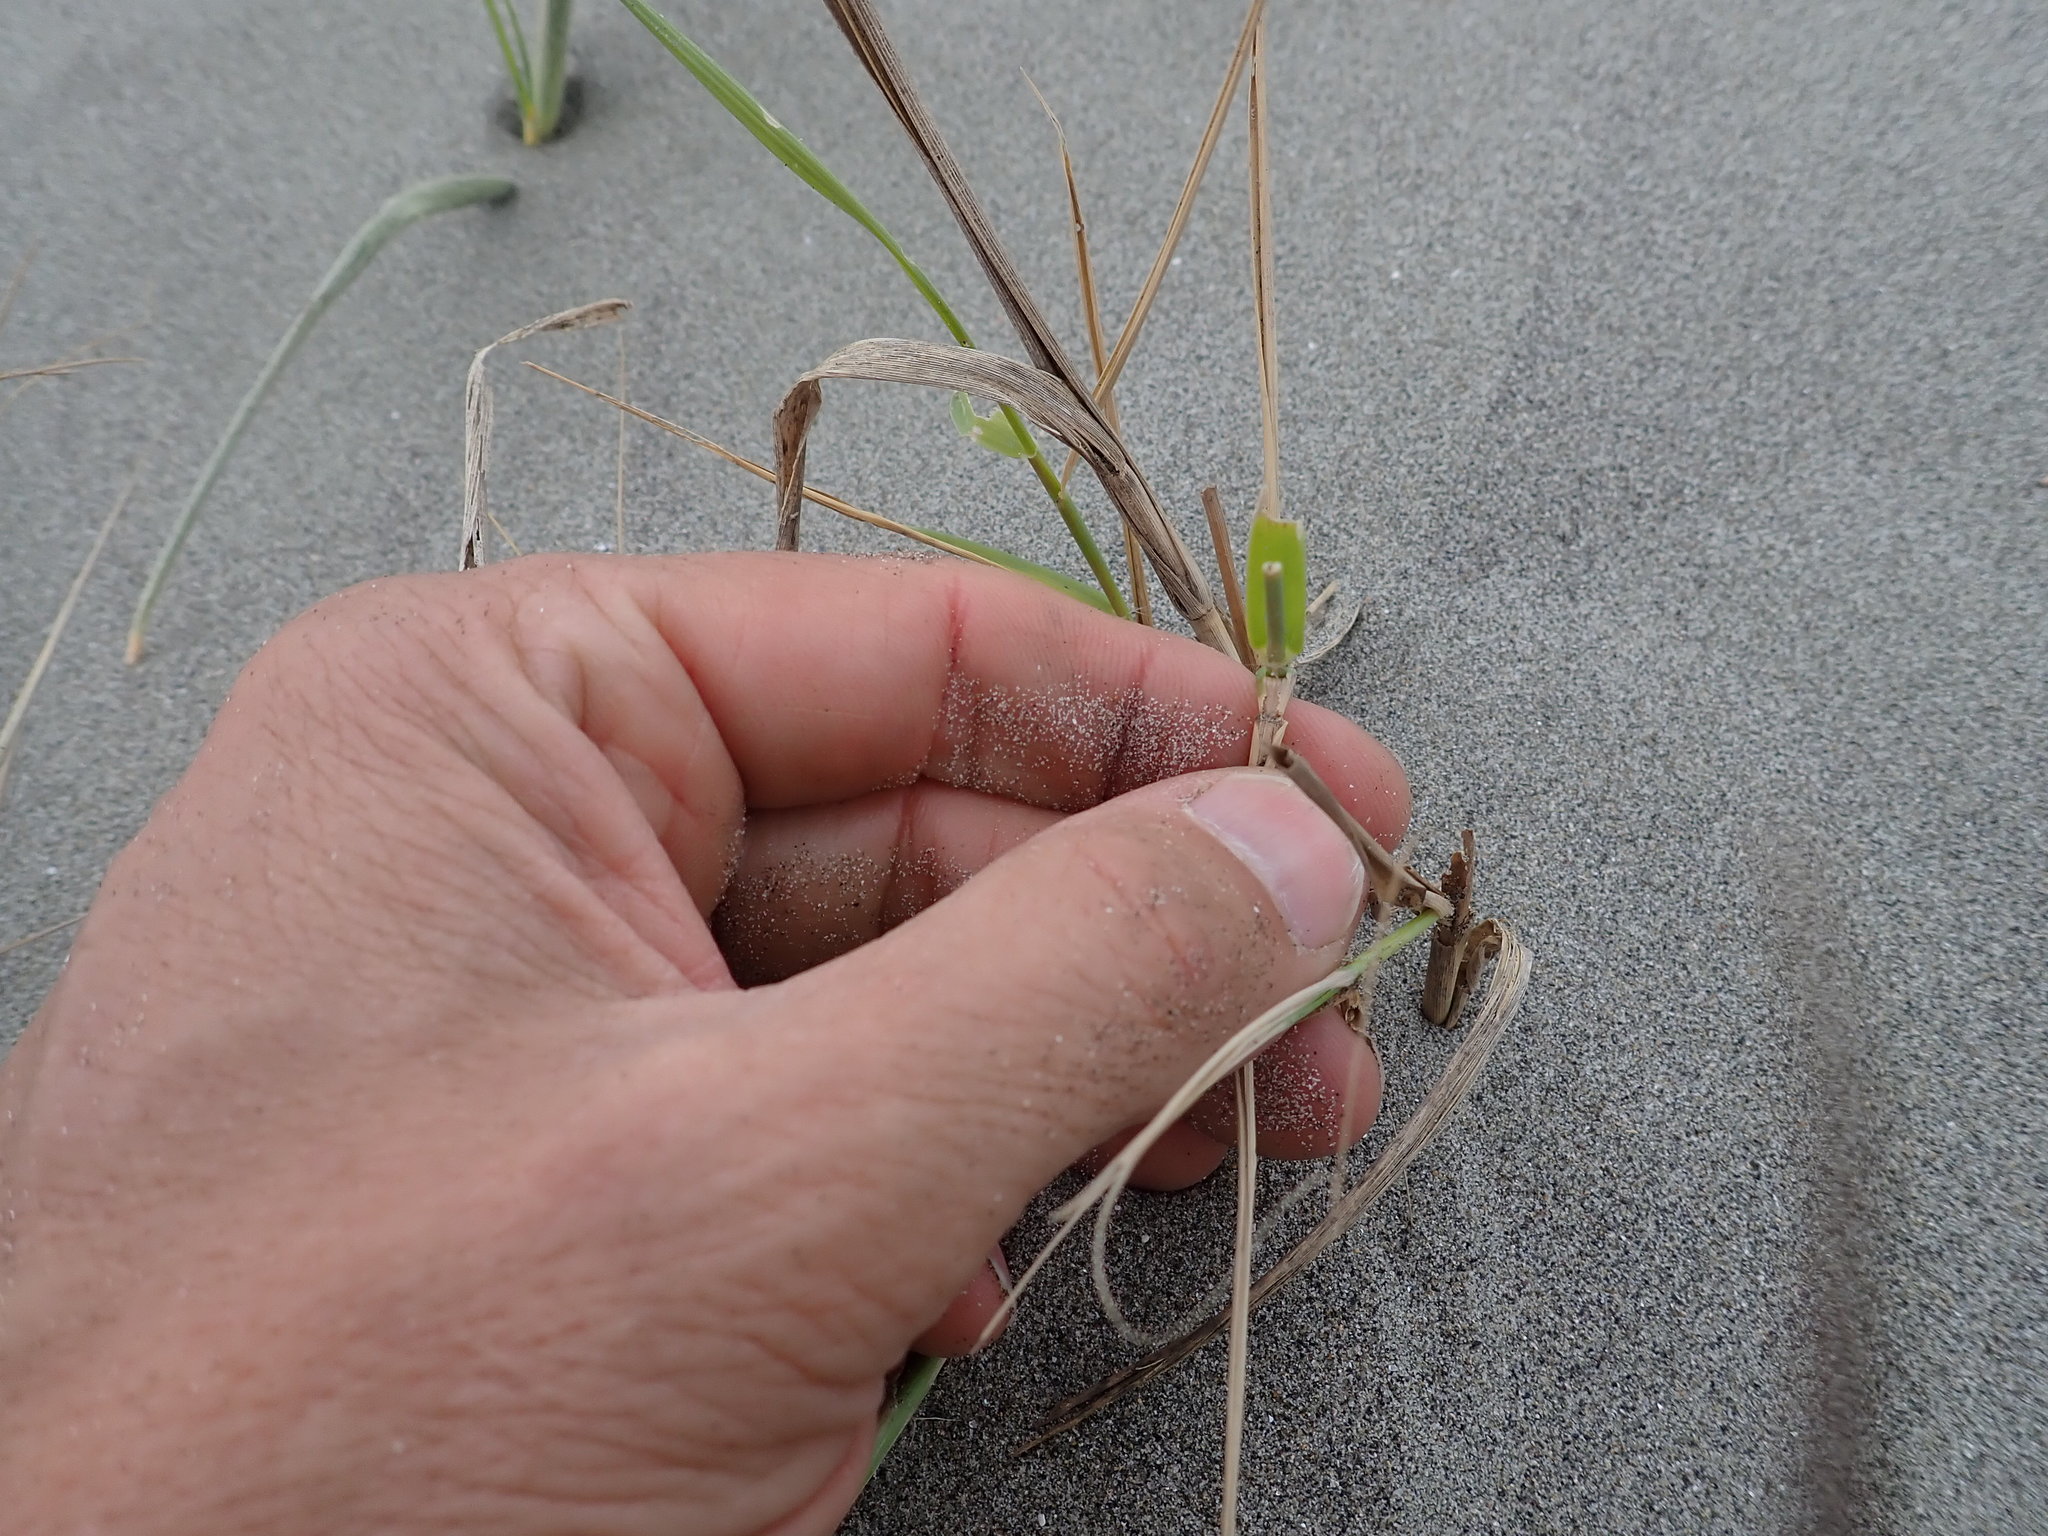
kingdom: Plantae
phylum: Tracheophyta
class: Liliopsida
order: Poales
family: Poaceae
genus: Phragmites
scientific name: Phragmites karka
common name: Tropical reed
